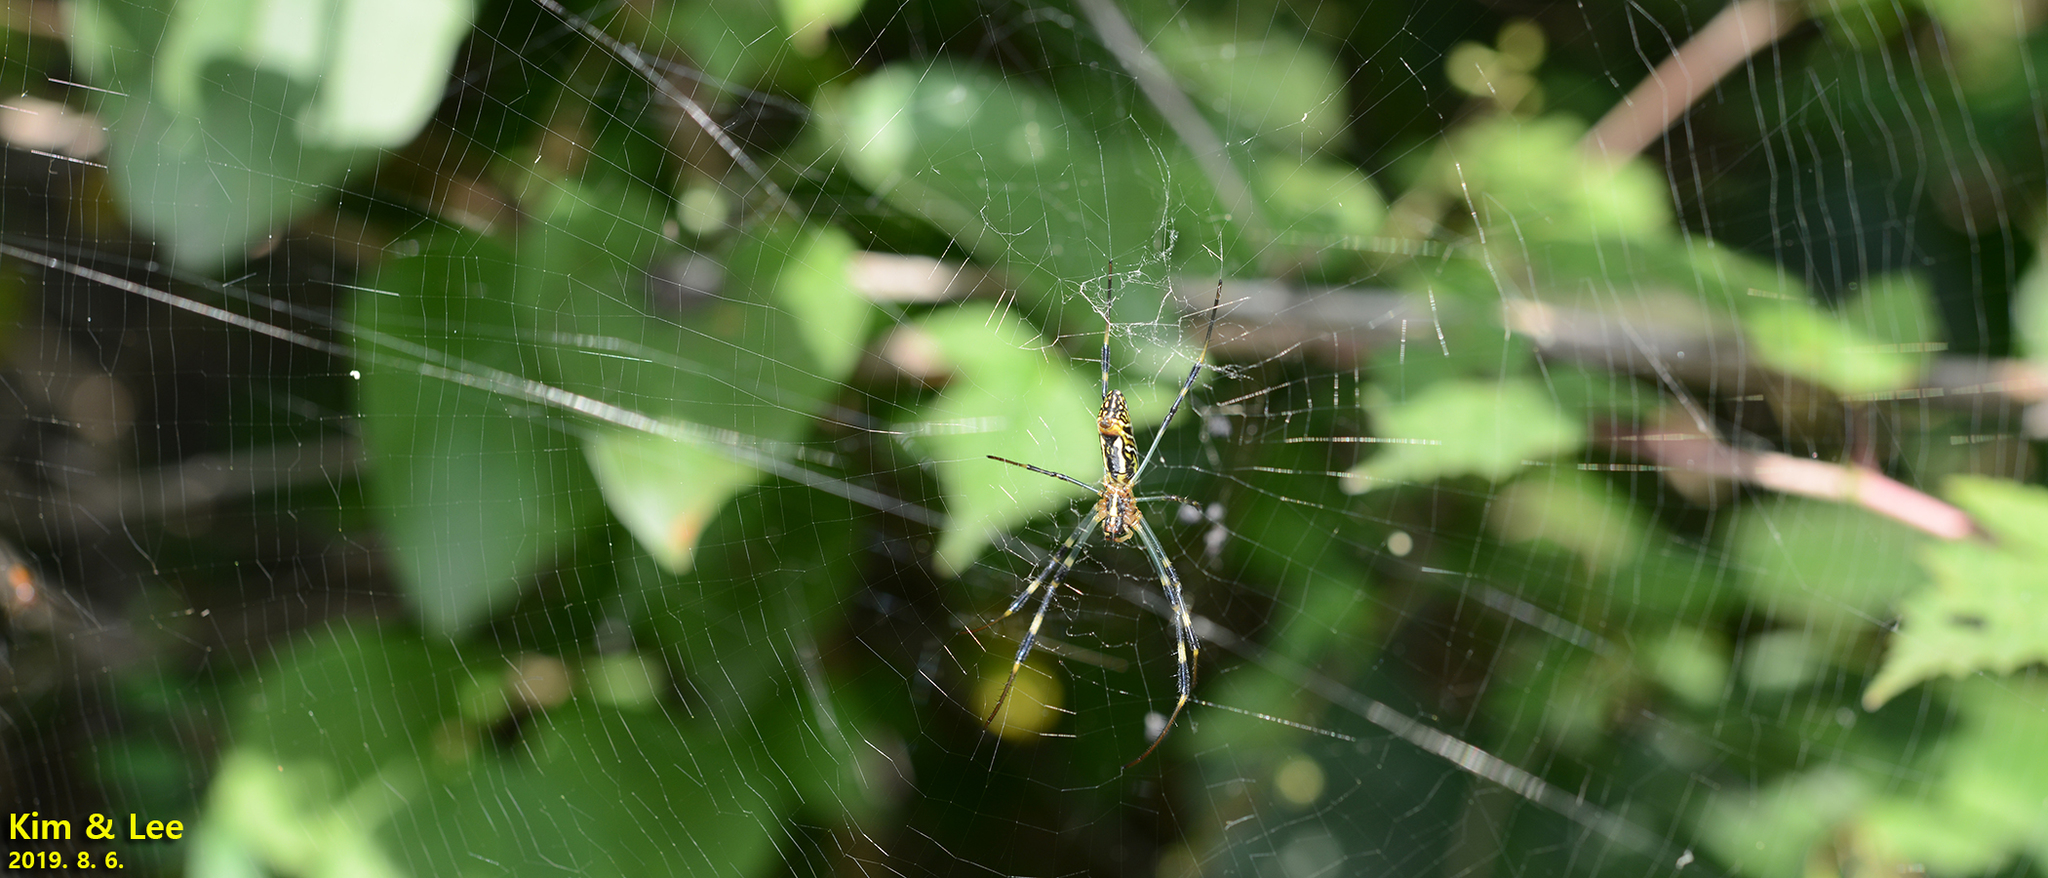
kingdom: Animalia
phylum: Arthropoda
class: Arachnida
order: Araneae
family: Araneidae
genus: Trichonephila
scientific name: Trichonephila clavata
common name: Jorō spider
